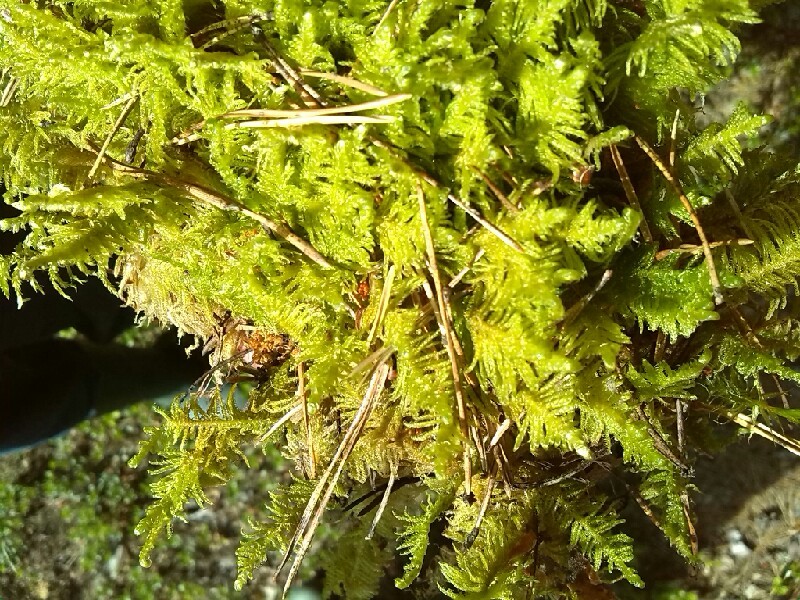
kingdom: Plantae
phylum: Bryophyta
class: Bryopsida
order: Hypnales
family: Pylaisiaceae
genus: Ptilium
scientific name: Ptilium crista-castrensis
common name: Knight's plume moss
